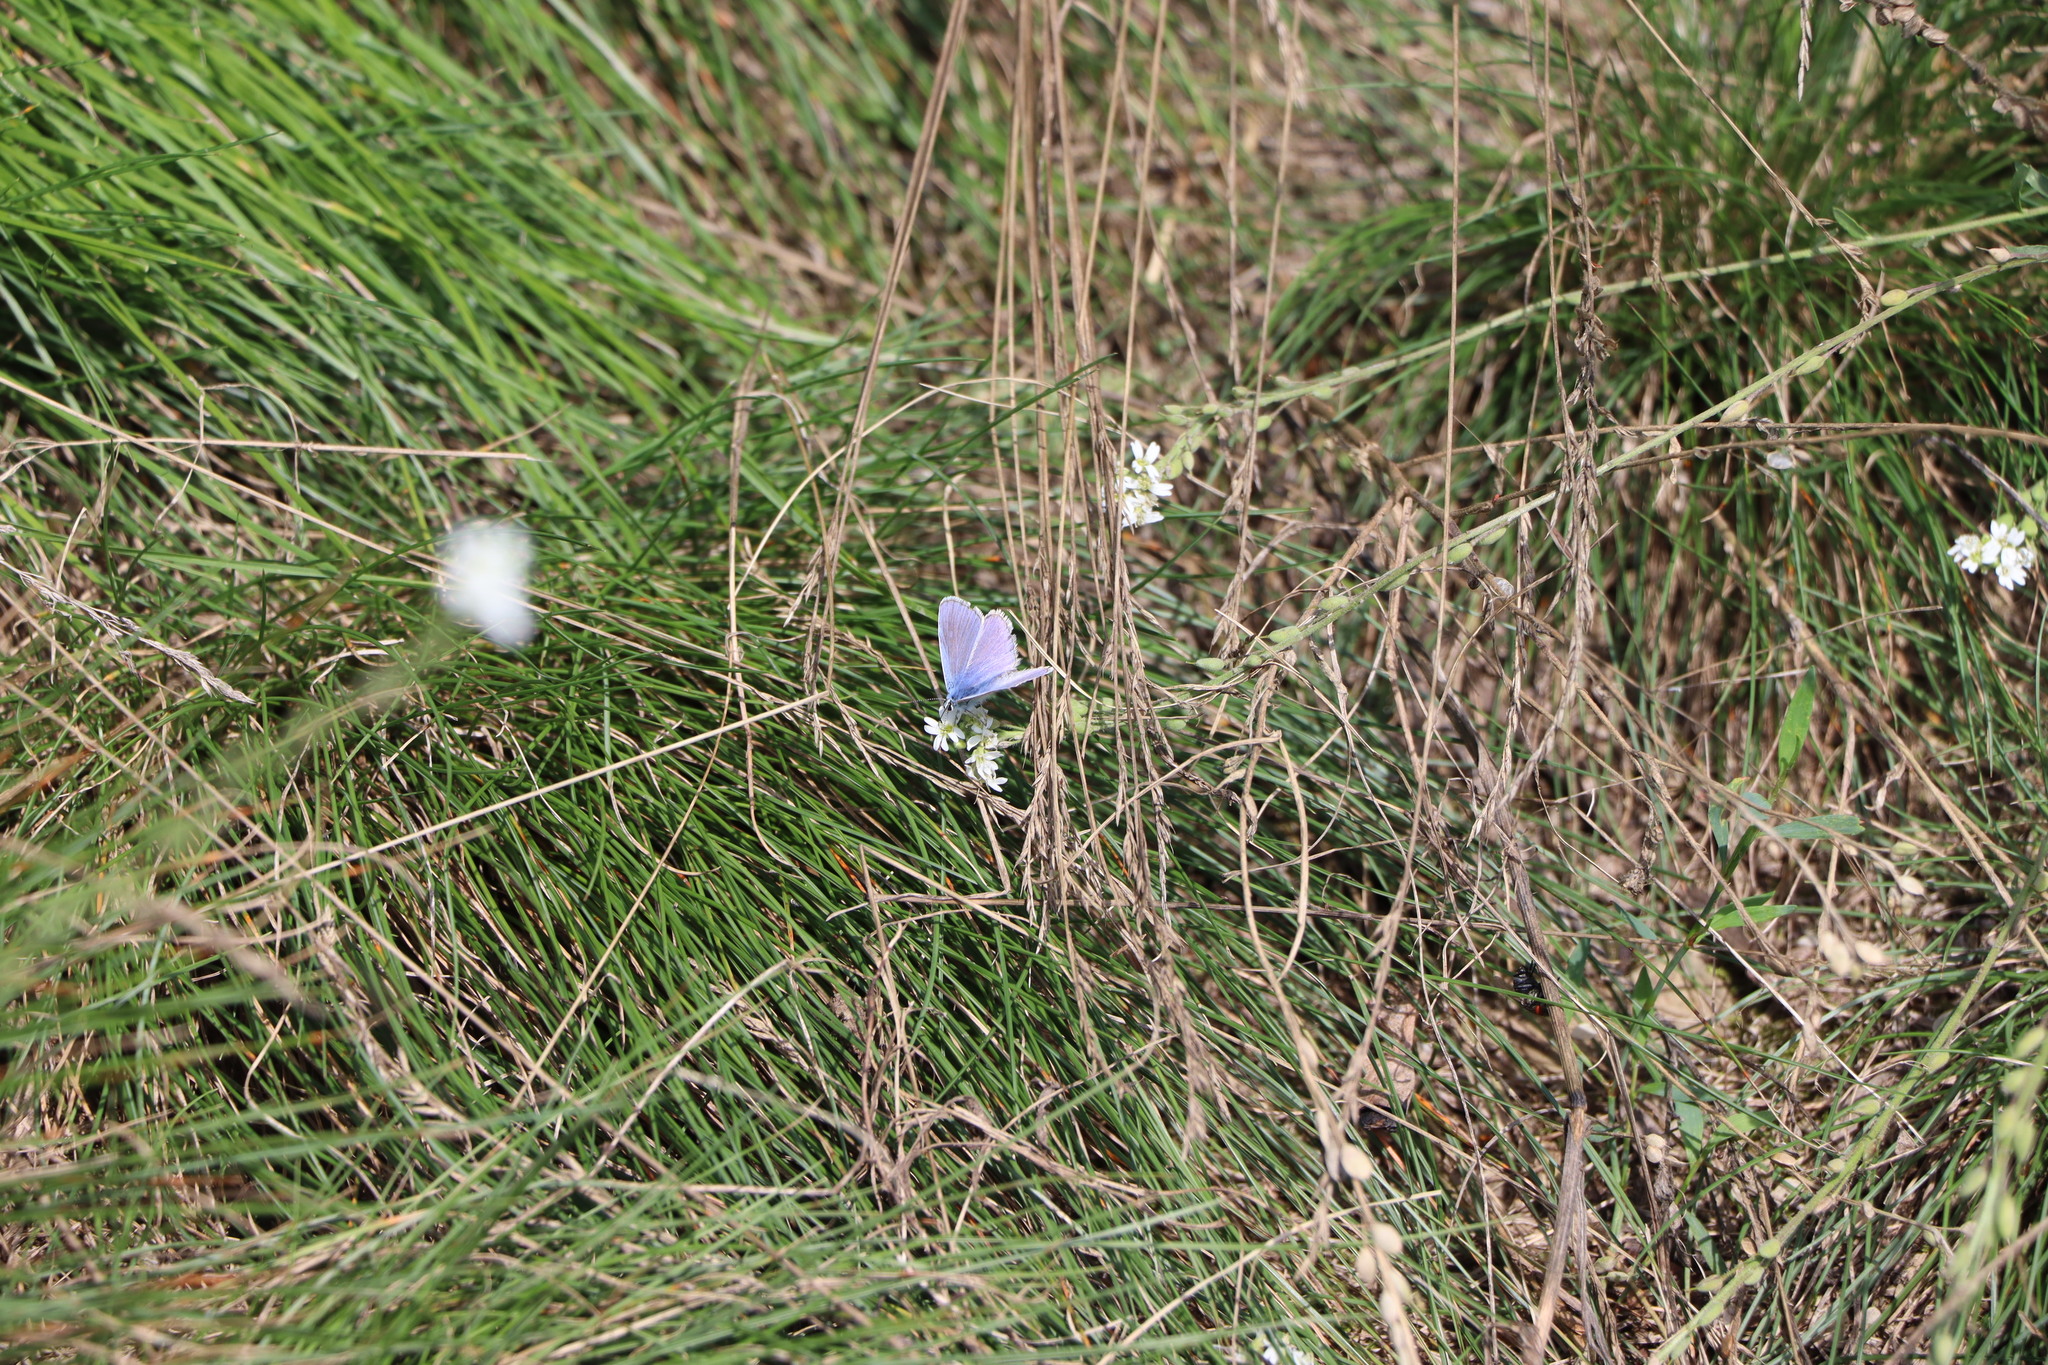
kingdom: Animalia
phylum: Arthropoda
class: Insecta
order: Lepidoptera
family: Lycaenidae
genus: Polyommatus
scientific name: Polyommatus icarus
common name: Common blue
